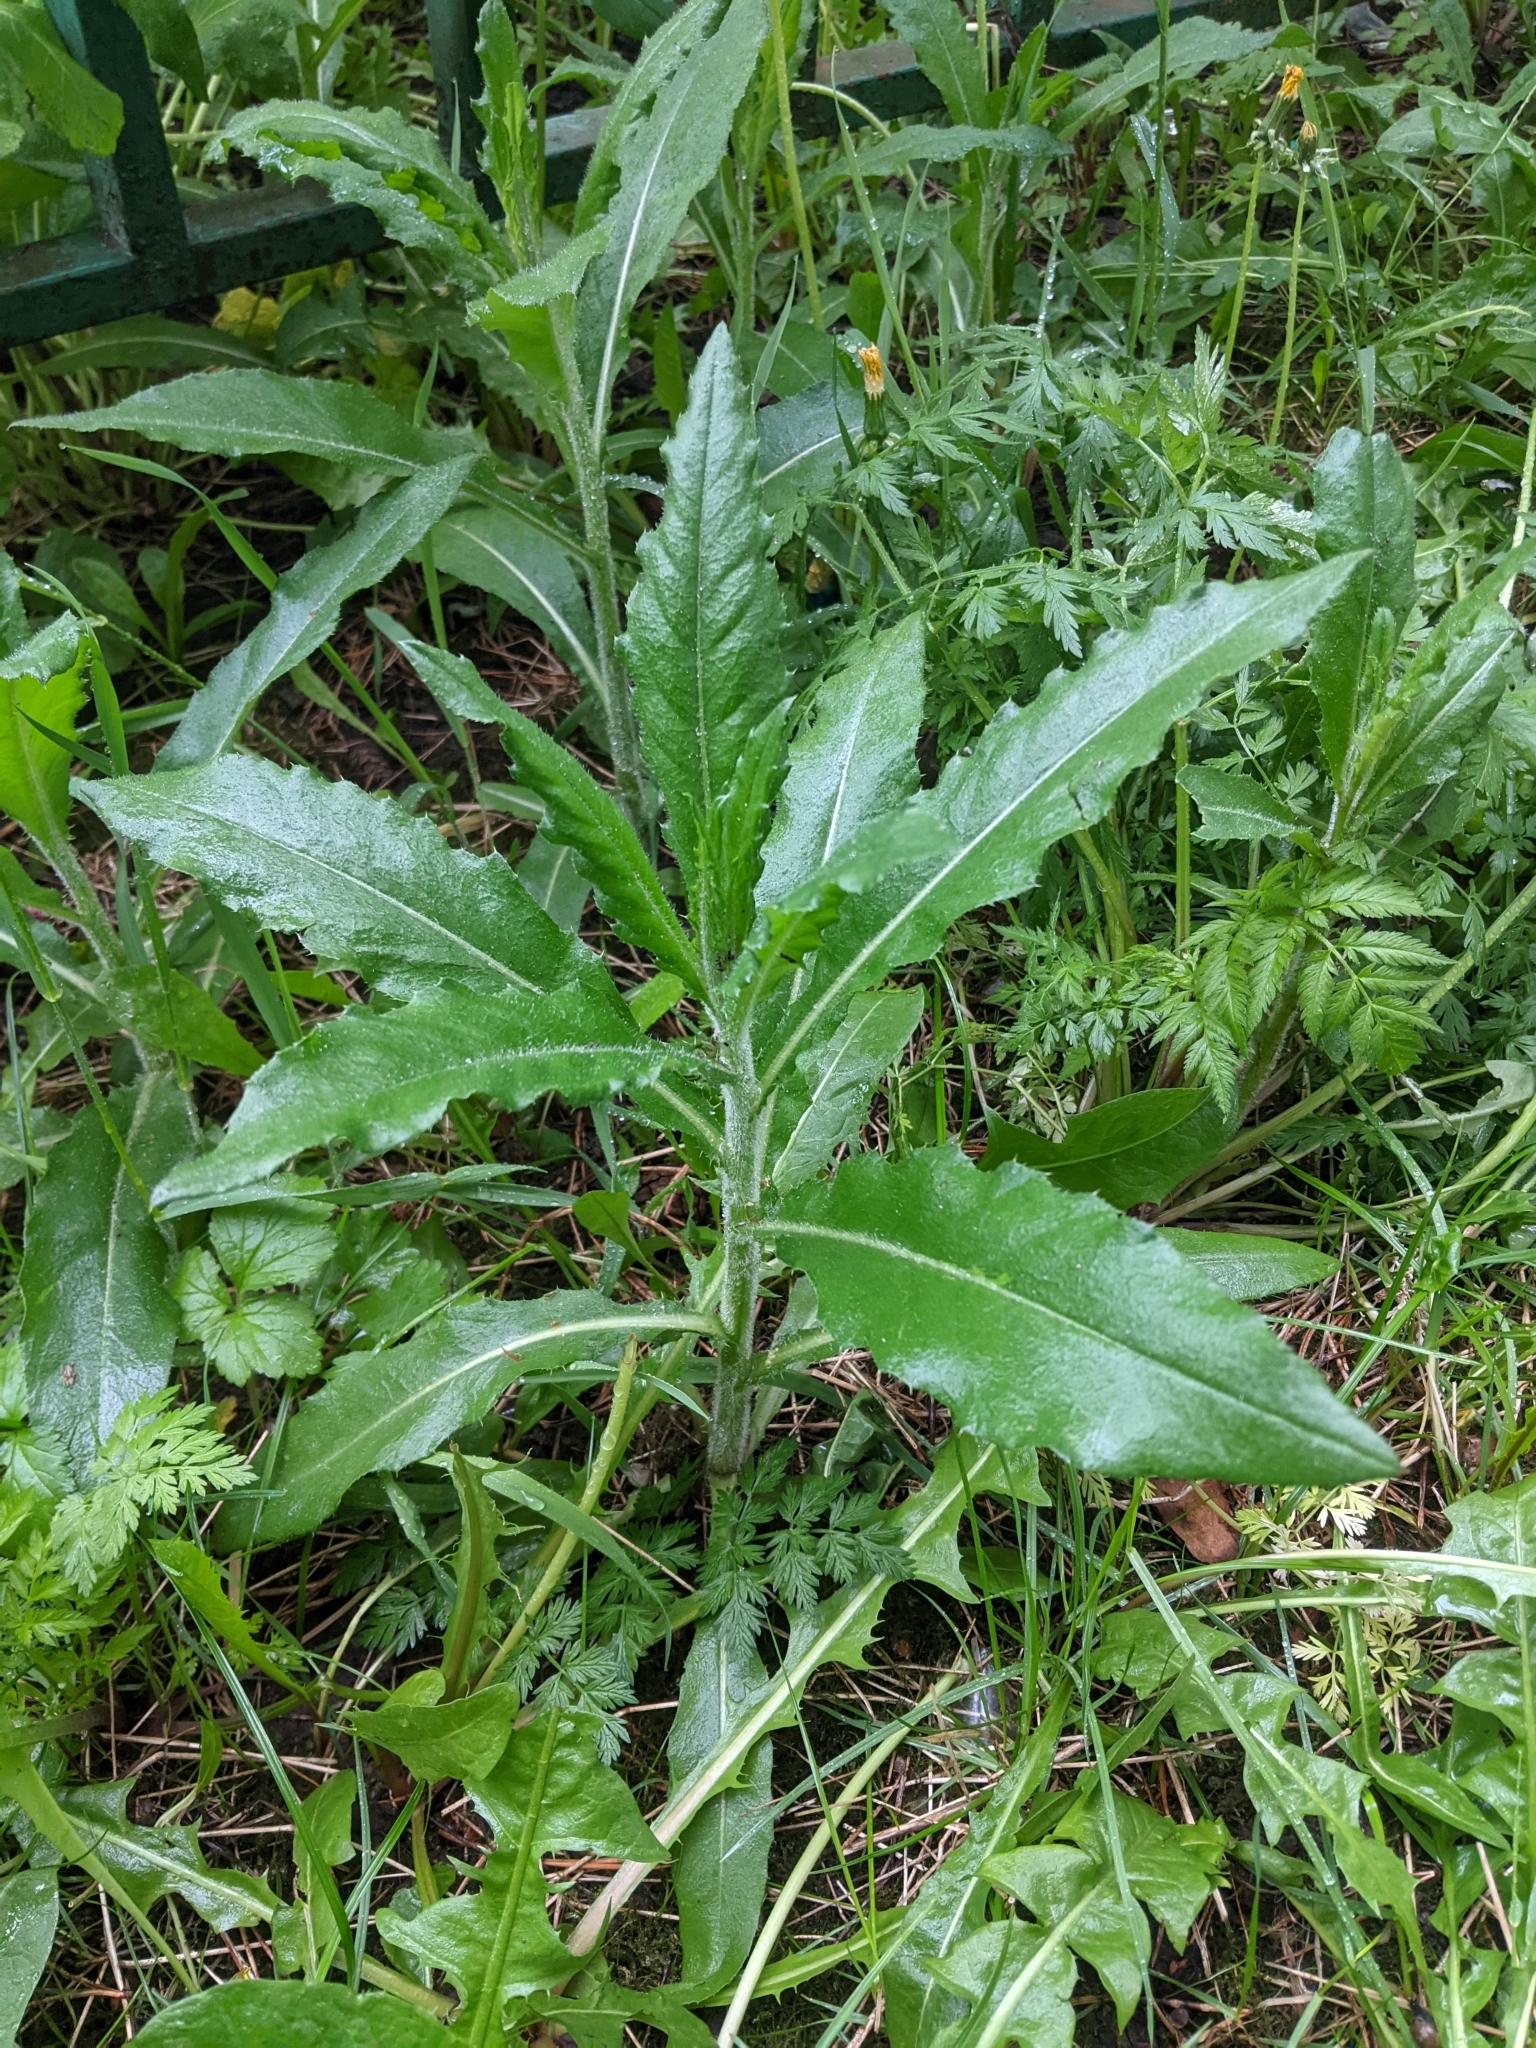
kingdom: Plantae
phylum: Tracheophyta
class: Magnoliopsida
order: Asterales
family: Asteraceae
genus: Cirsium
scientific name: Cirsium arvense
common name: Creeping thistle
